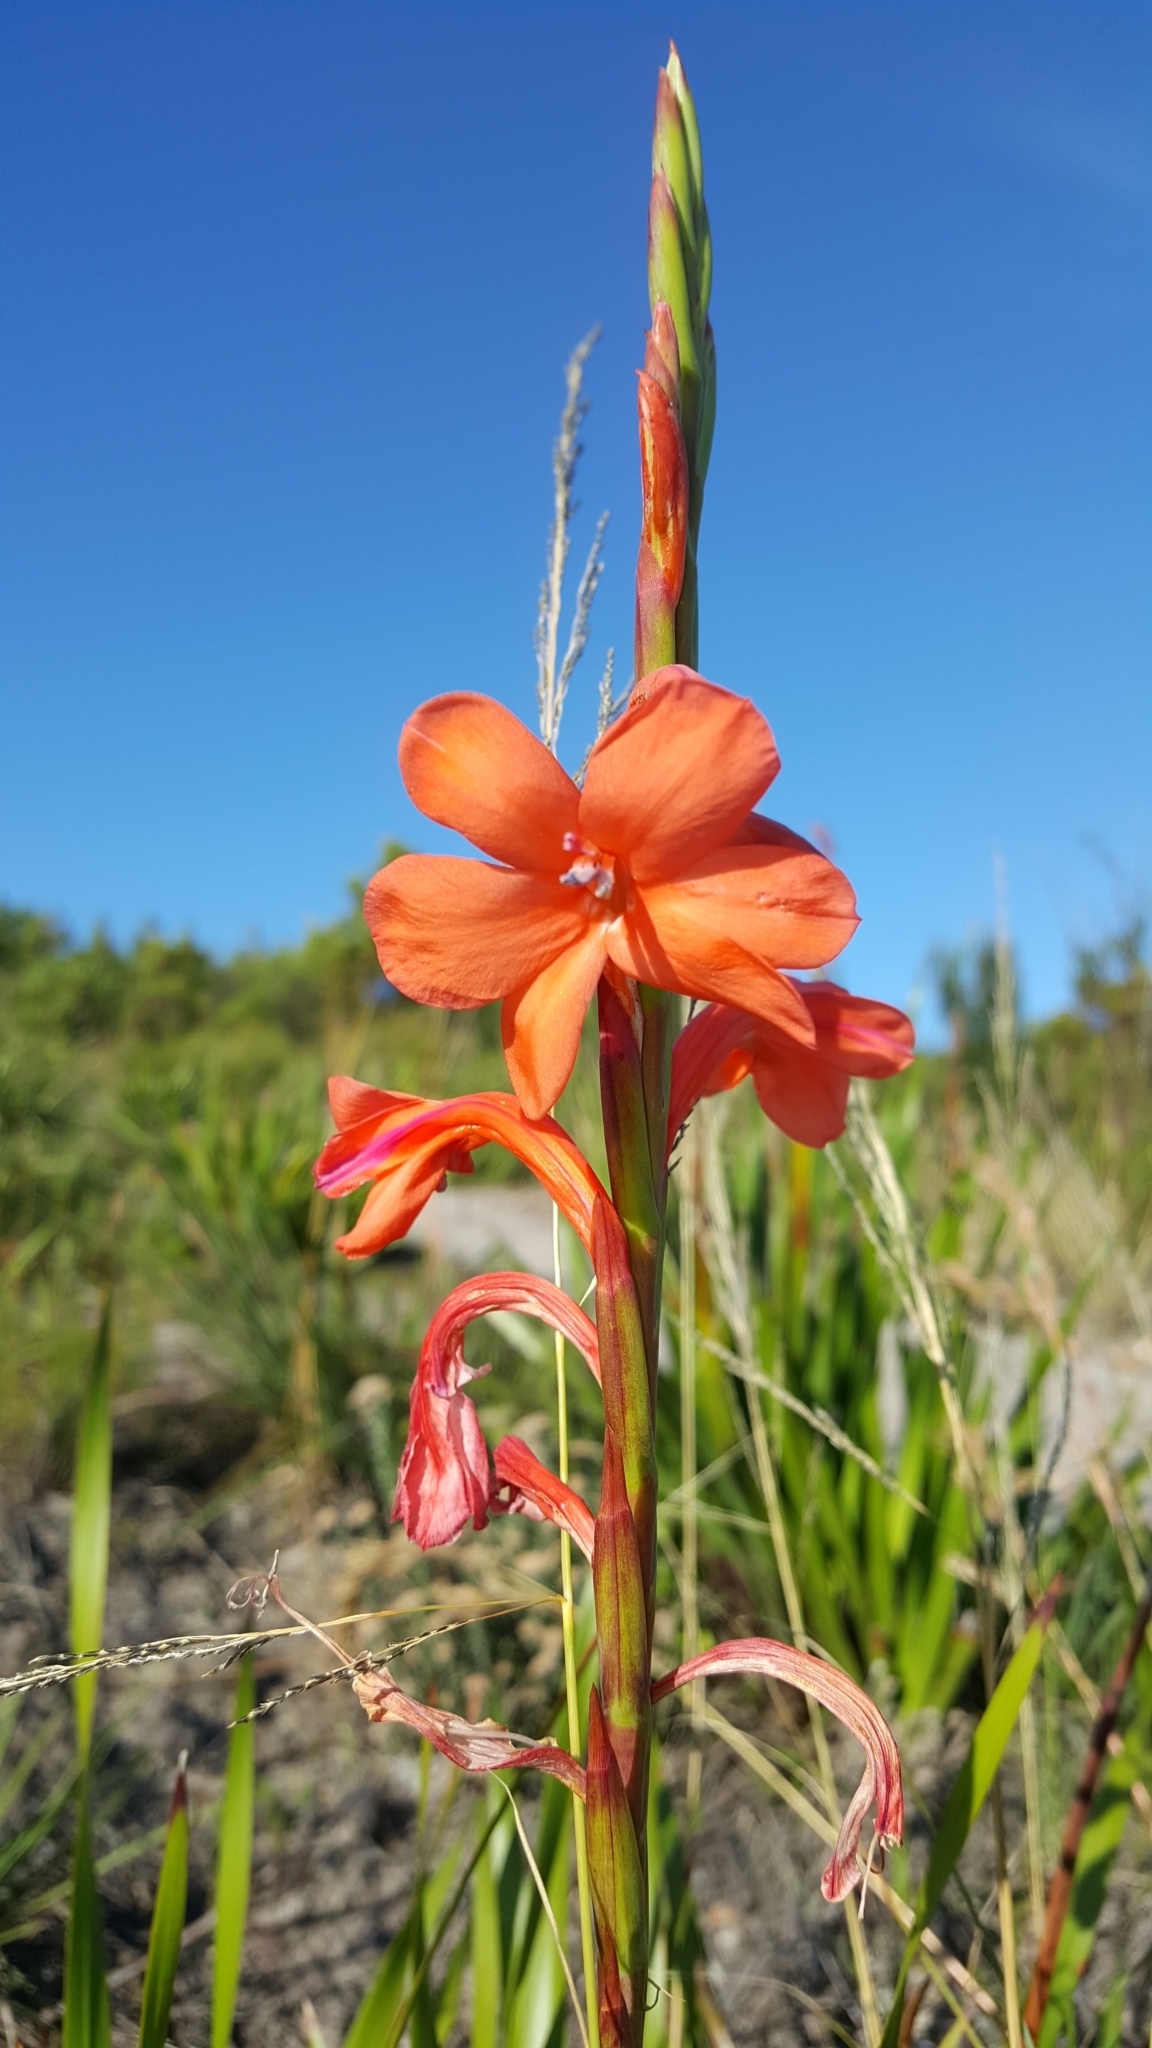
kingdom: Plantae
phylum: Tracheophyta
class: Liliopsida
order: Asparagales
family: Iridaceae
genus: Watsonia
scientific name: Watsonia pillansii
